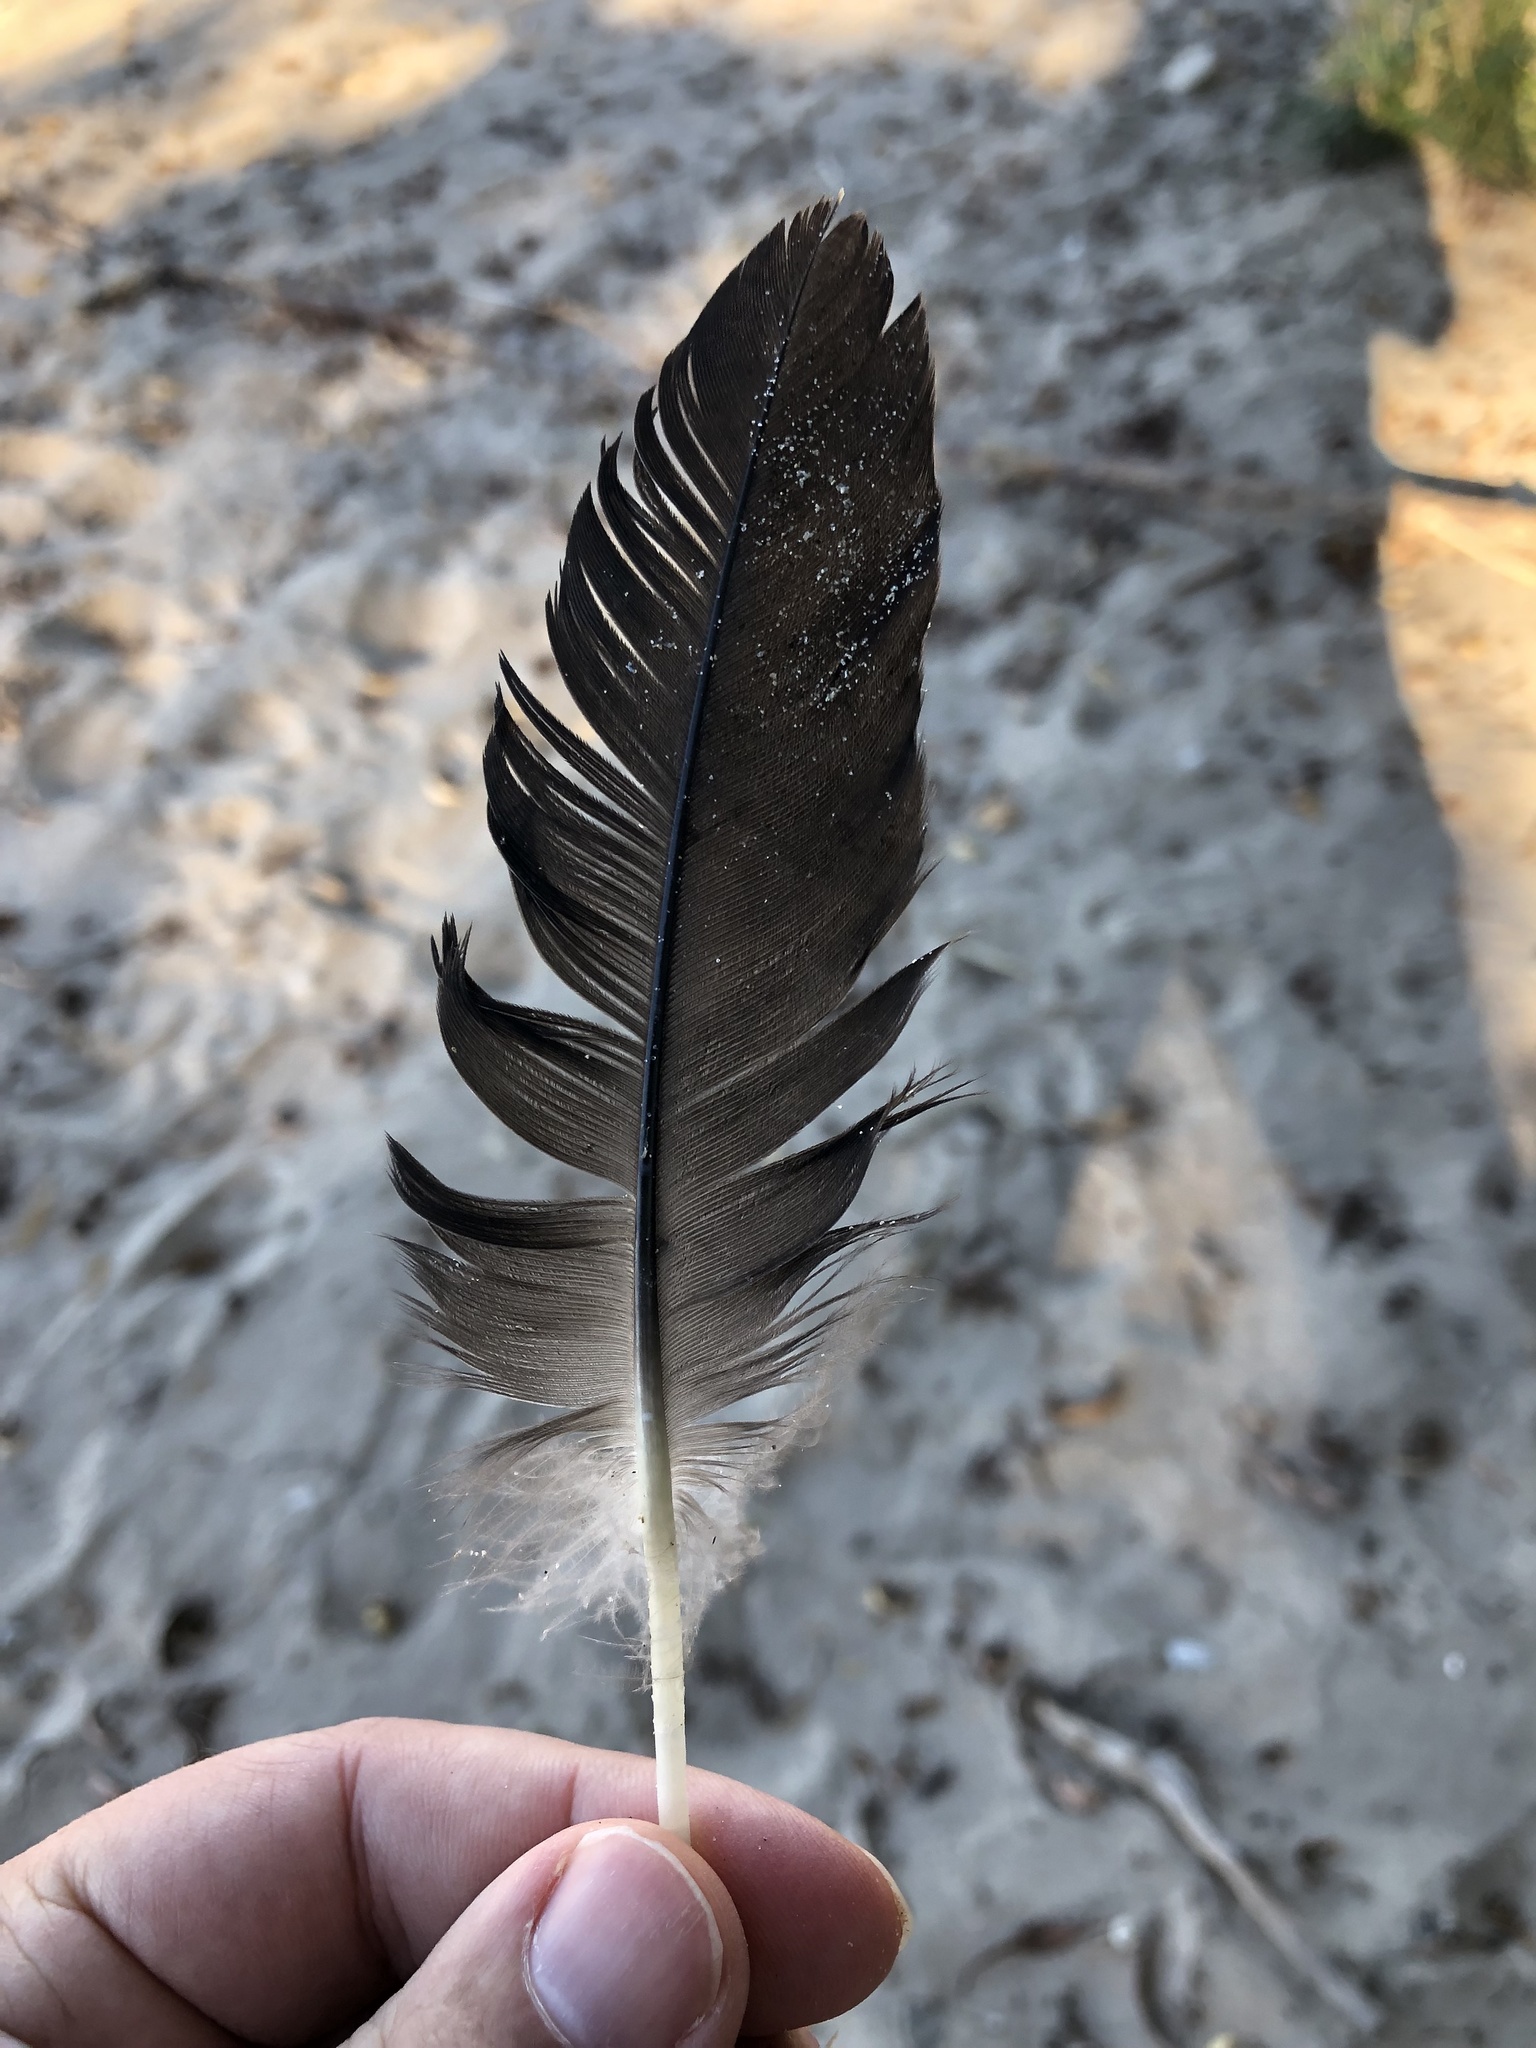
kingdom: Animalia
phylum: Chordata
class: Aves
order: Anseriformes
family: Anatidae
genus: Branta
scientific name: Branta canadensis
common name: Canada goose
